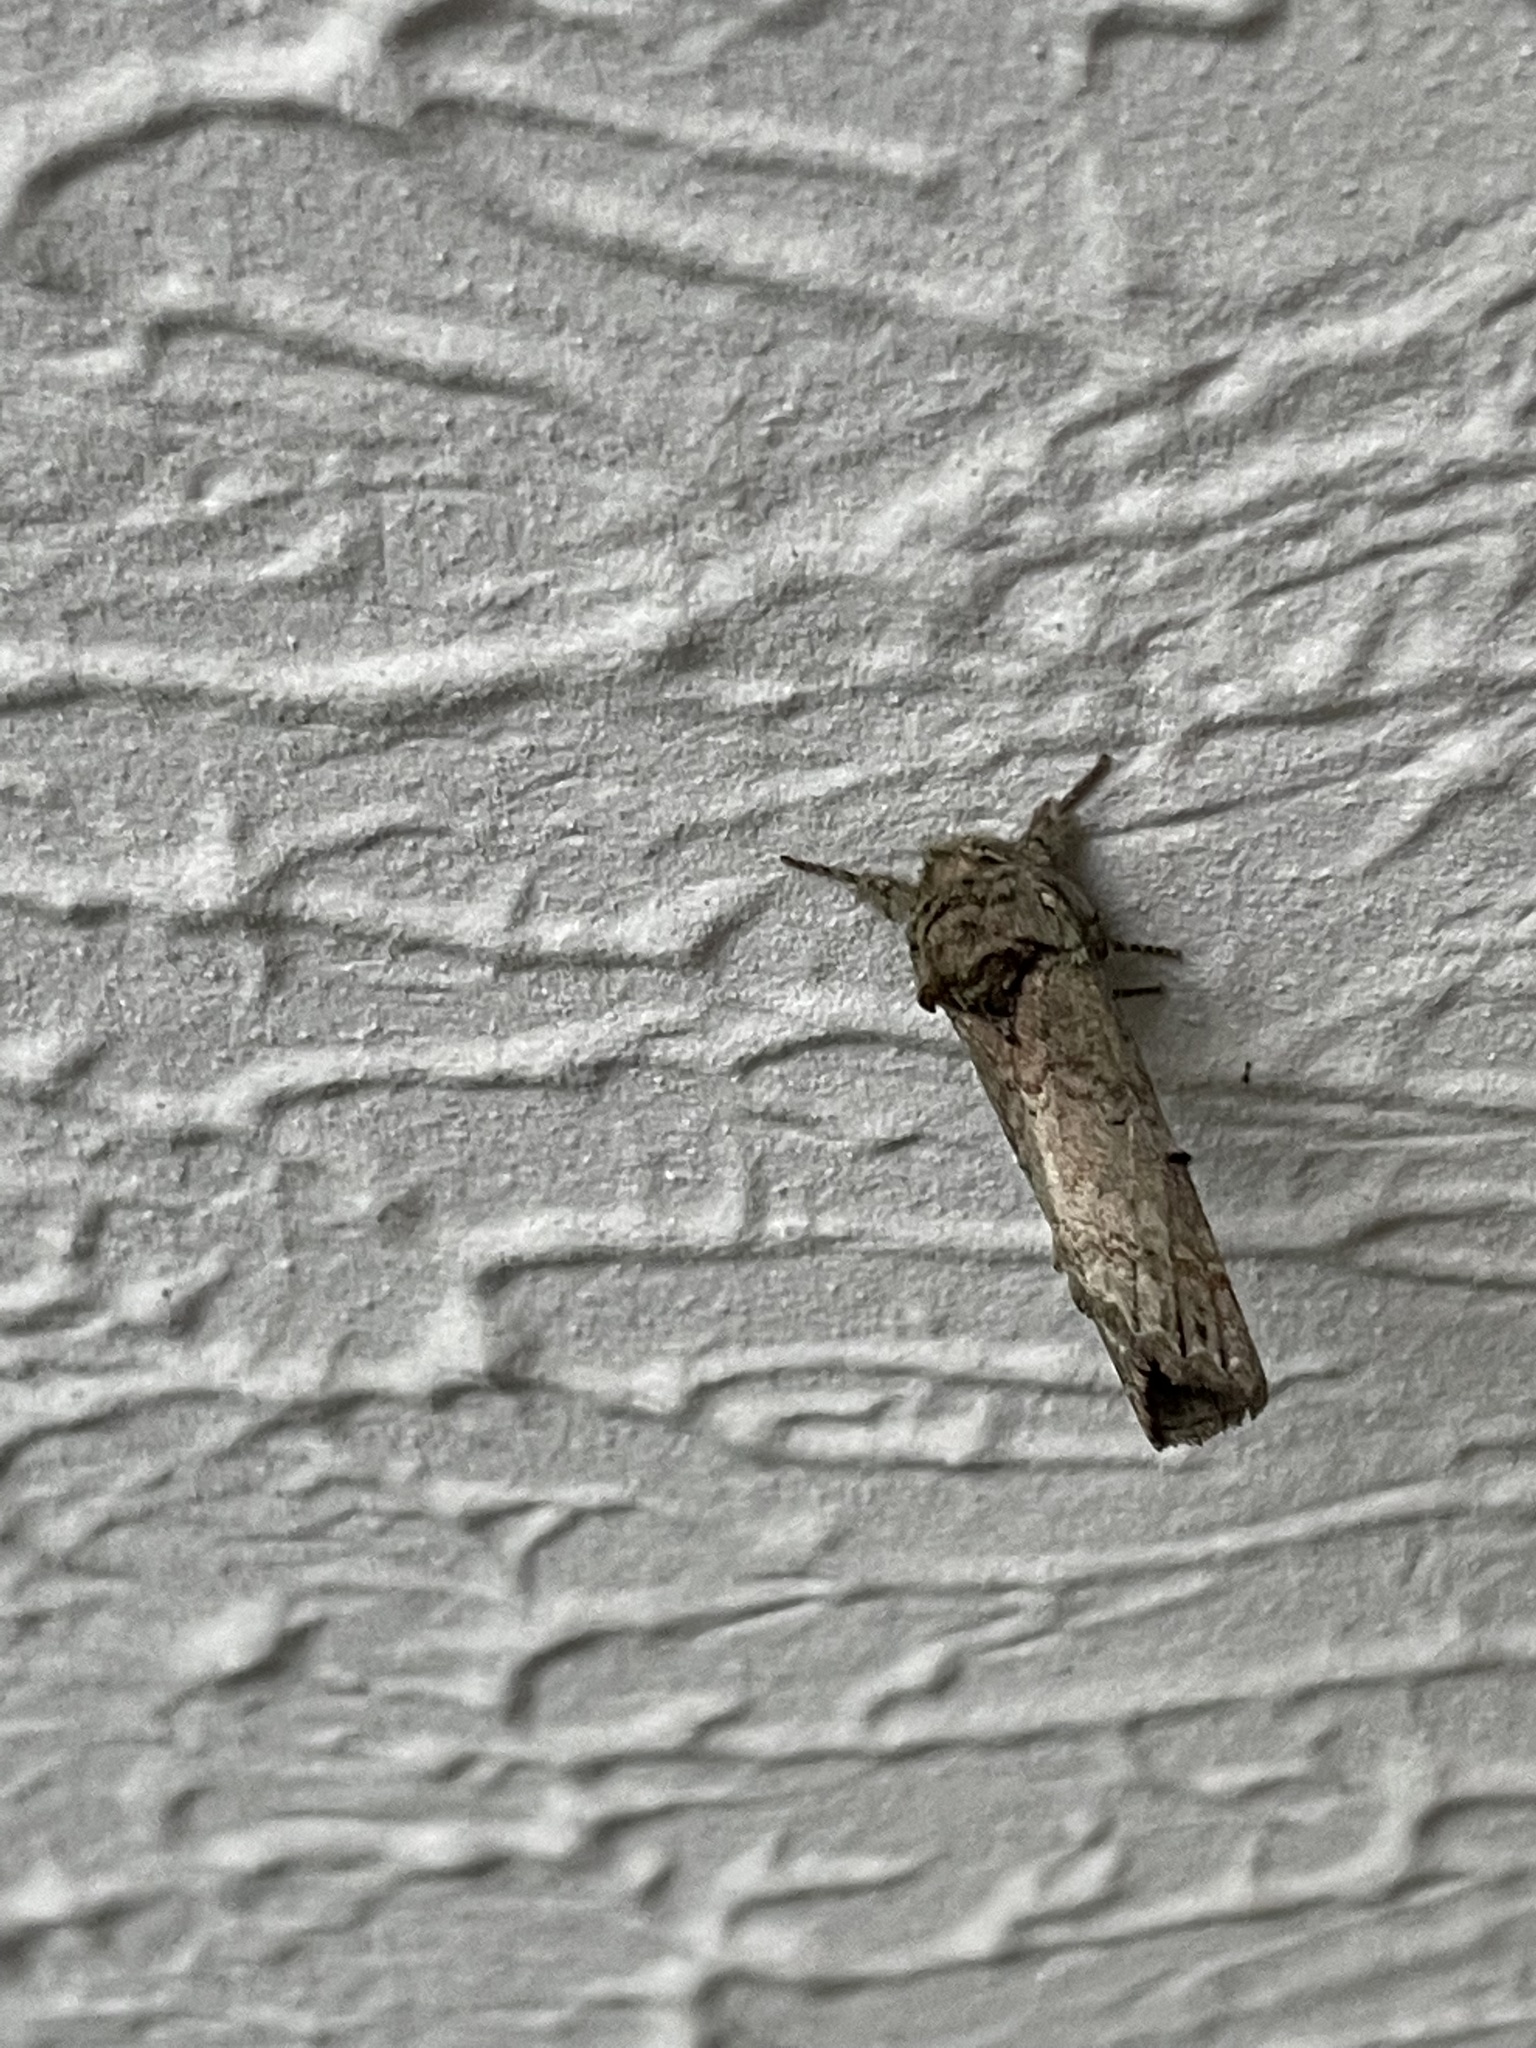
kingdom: Animalia
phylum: Arthropoda
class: Insecta
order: Lepidoptera
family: Notodontidae
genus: Schizura
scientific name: Schizura
